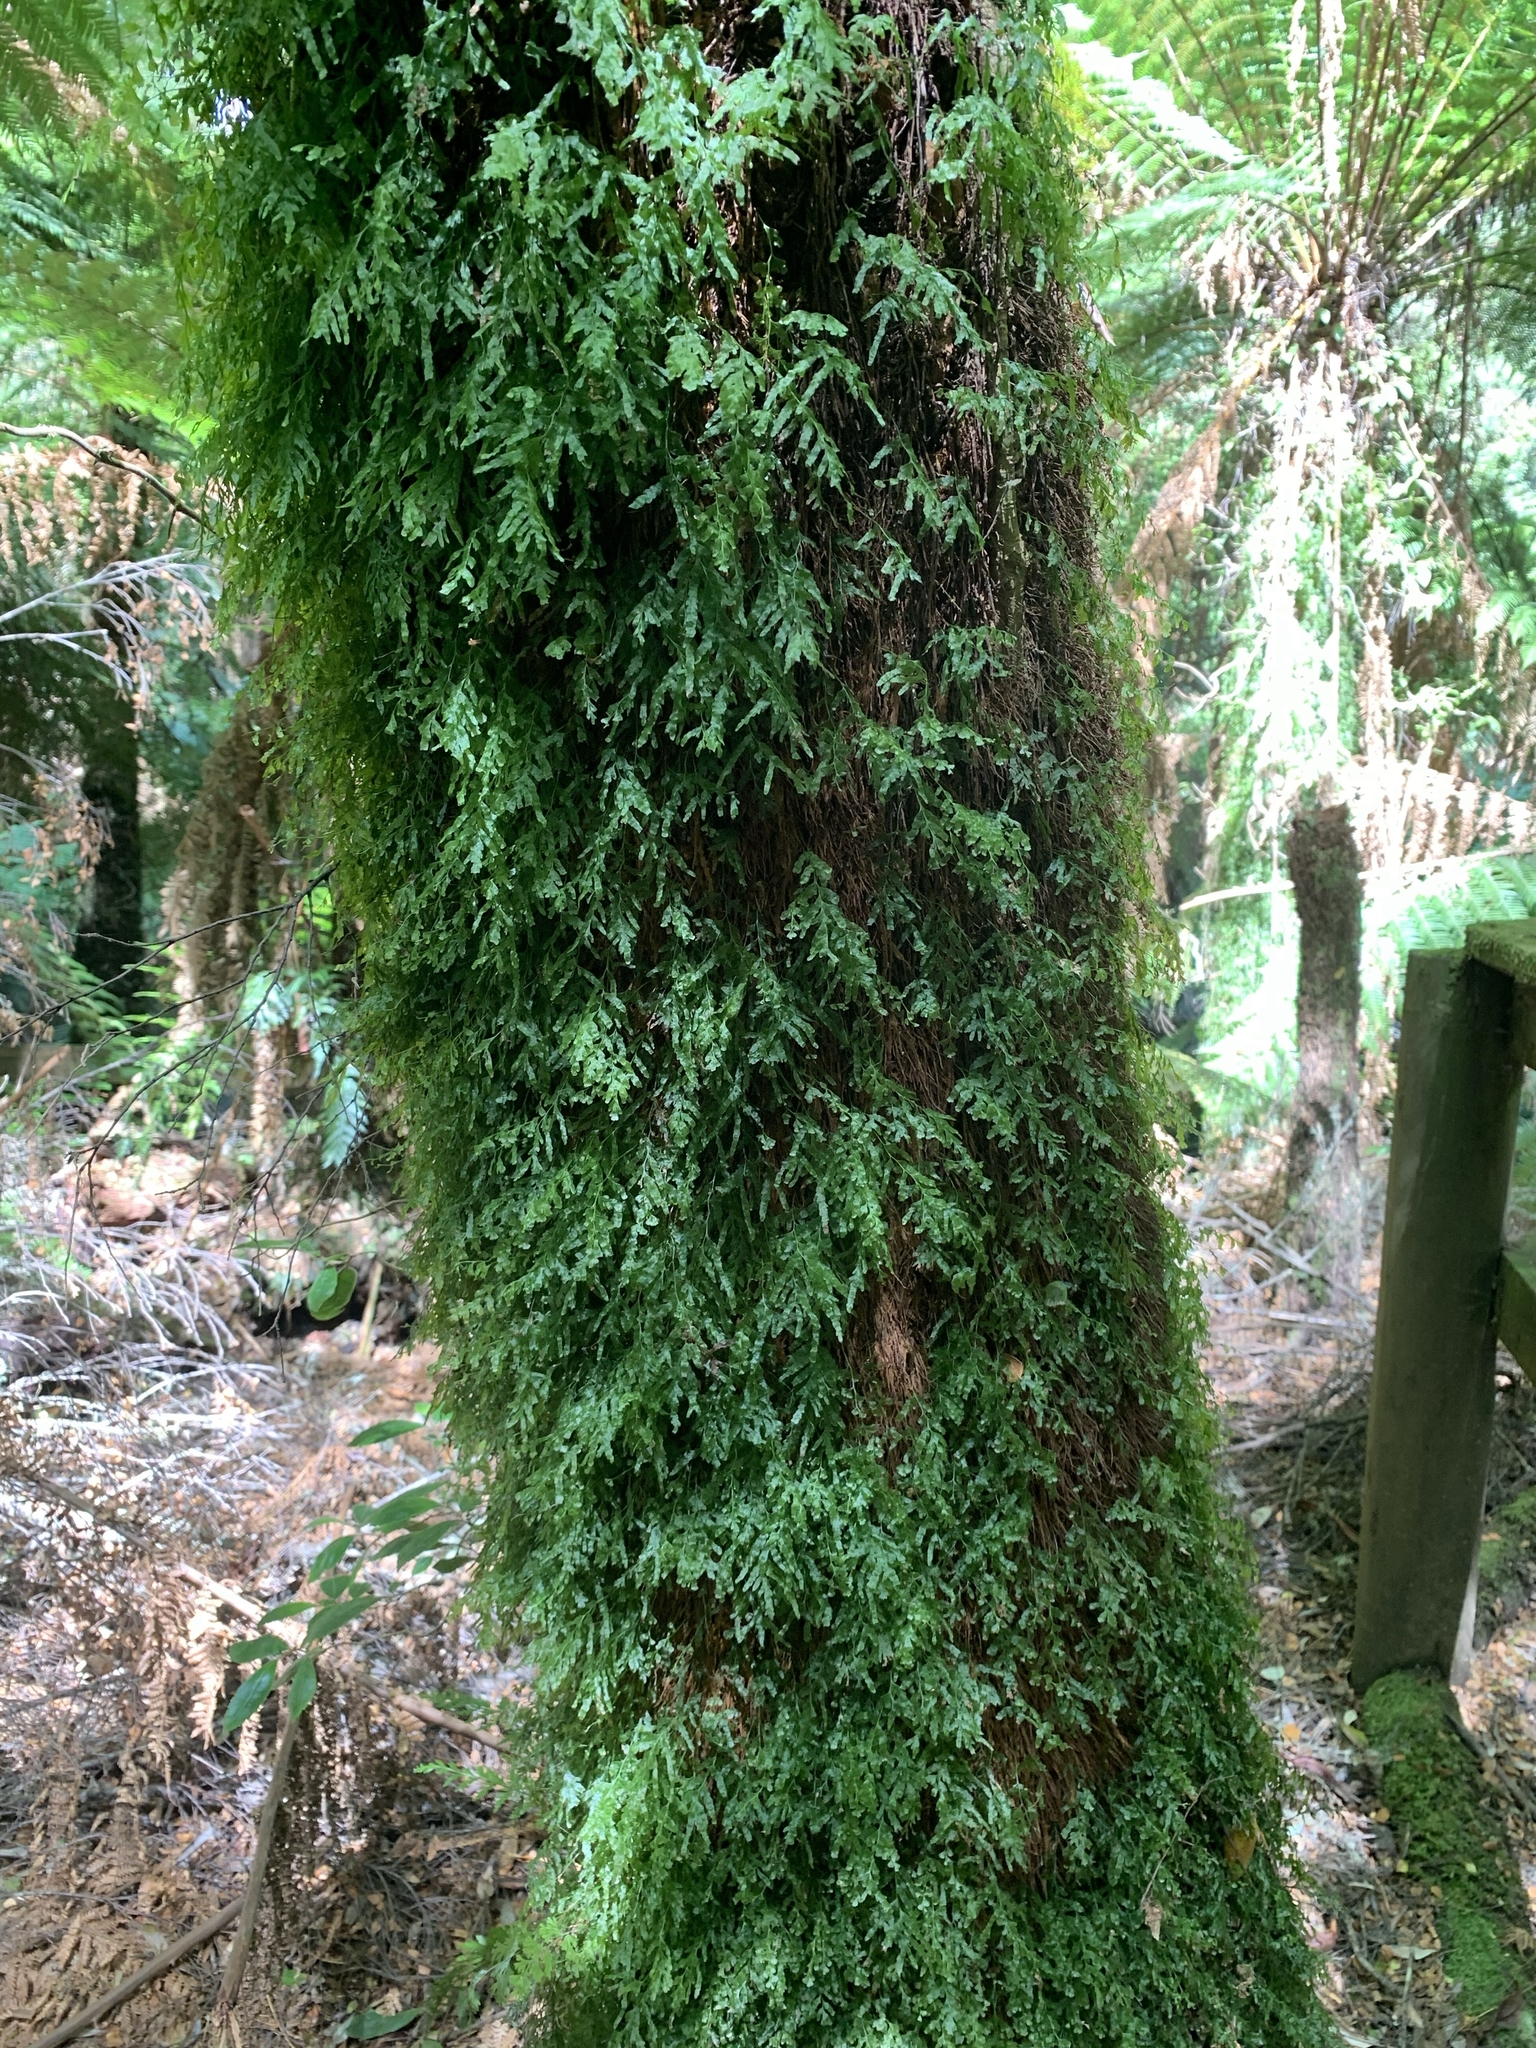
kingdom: Plantae
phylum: Tracheophyta
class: Polypodiopsida
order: Hymenophyllales
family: Hymenophyllaceae
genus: Polyphlebium
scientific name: Polyphlebium venosum
